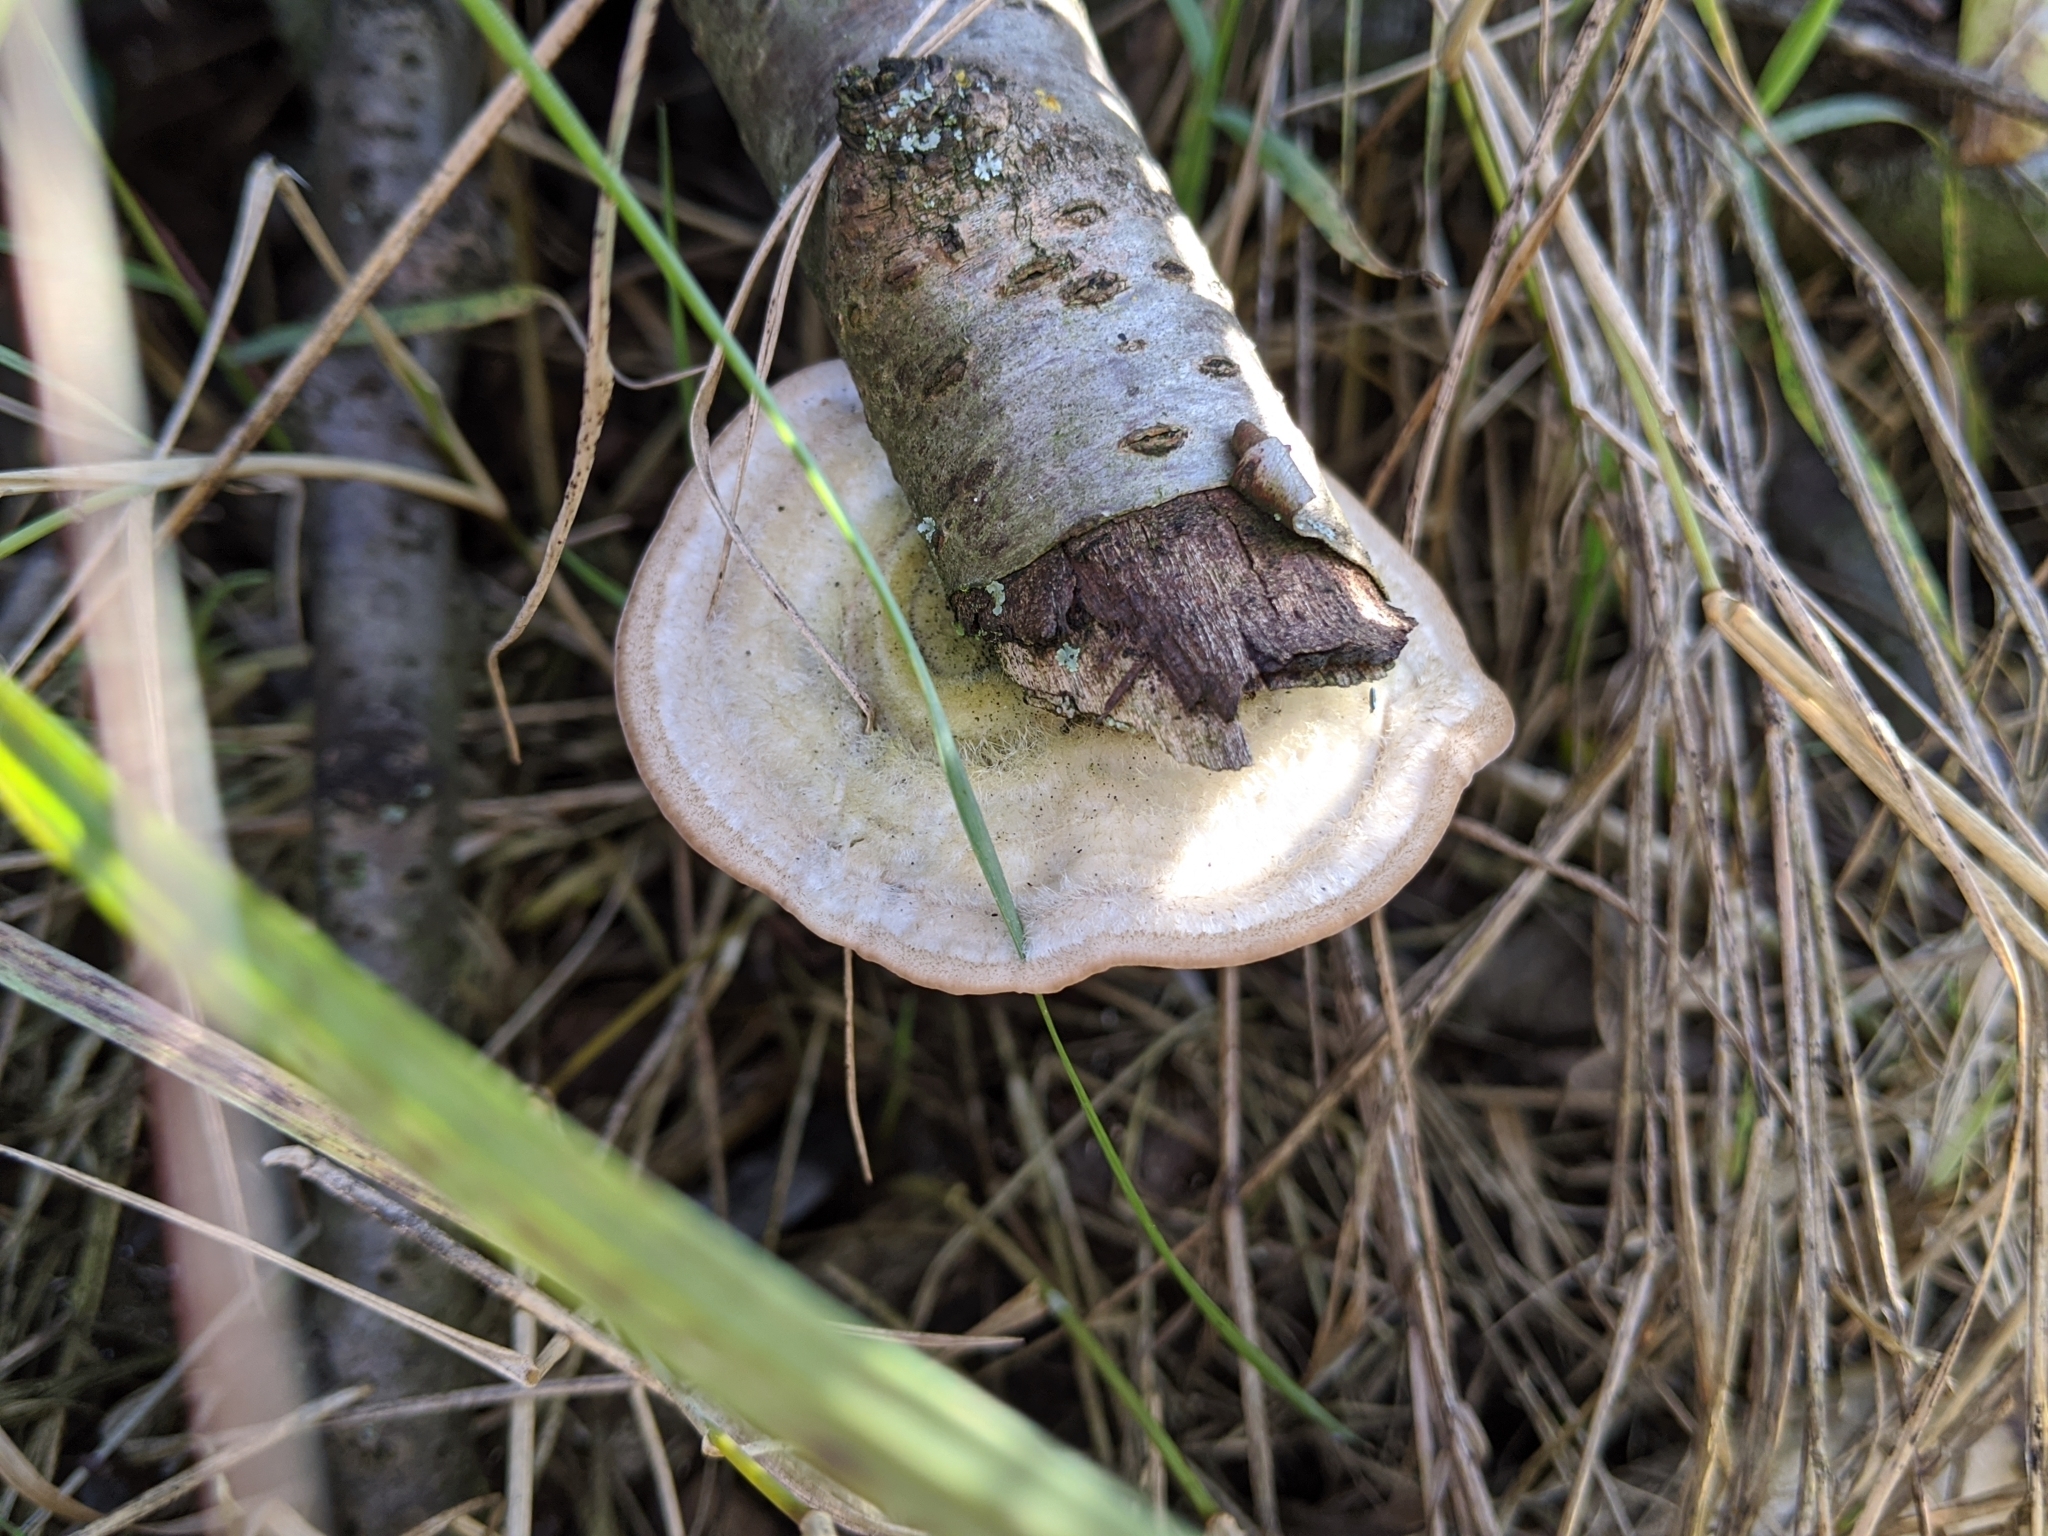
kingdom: Fungi
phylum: Basidiomycota
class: Agaricomycetes
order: Polyporales
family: Polyporaceae
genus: Trametes
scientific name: Trametes hirsuta
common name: Hairy bracket
